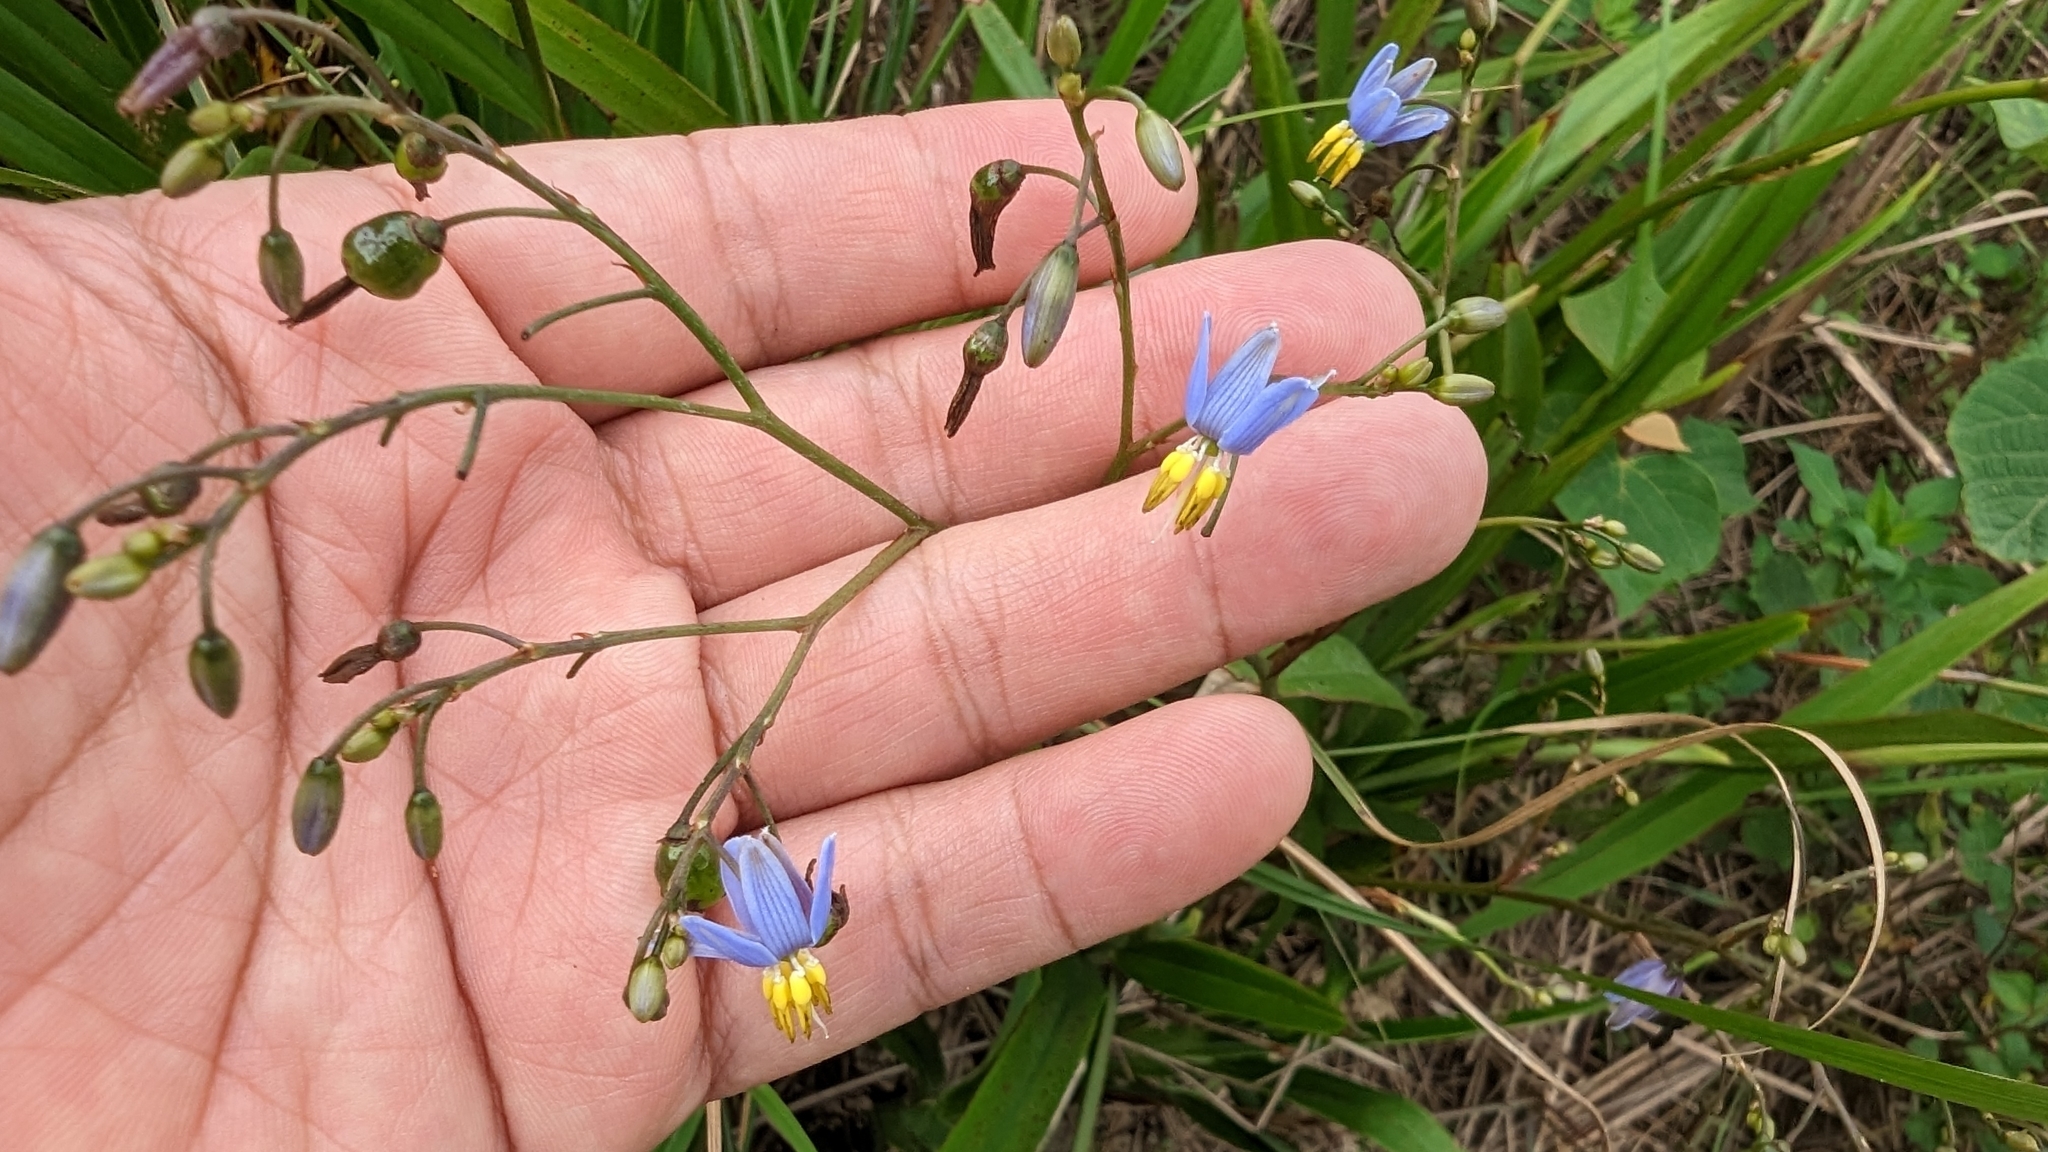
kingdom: Plantae
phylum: Tracheophyta
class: Liliopsida
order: Asparagales
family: Asphodelaceae
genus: Dianella
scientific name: Dianella ensifolia
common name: New zealand lilyplant
